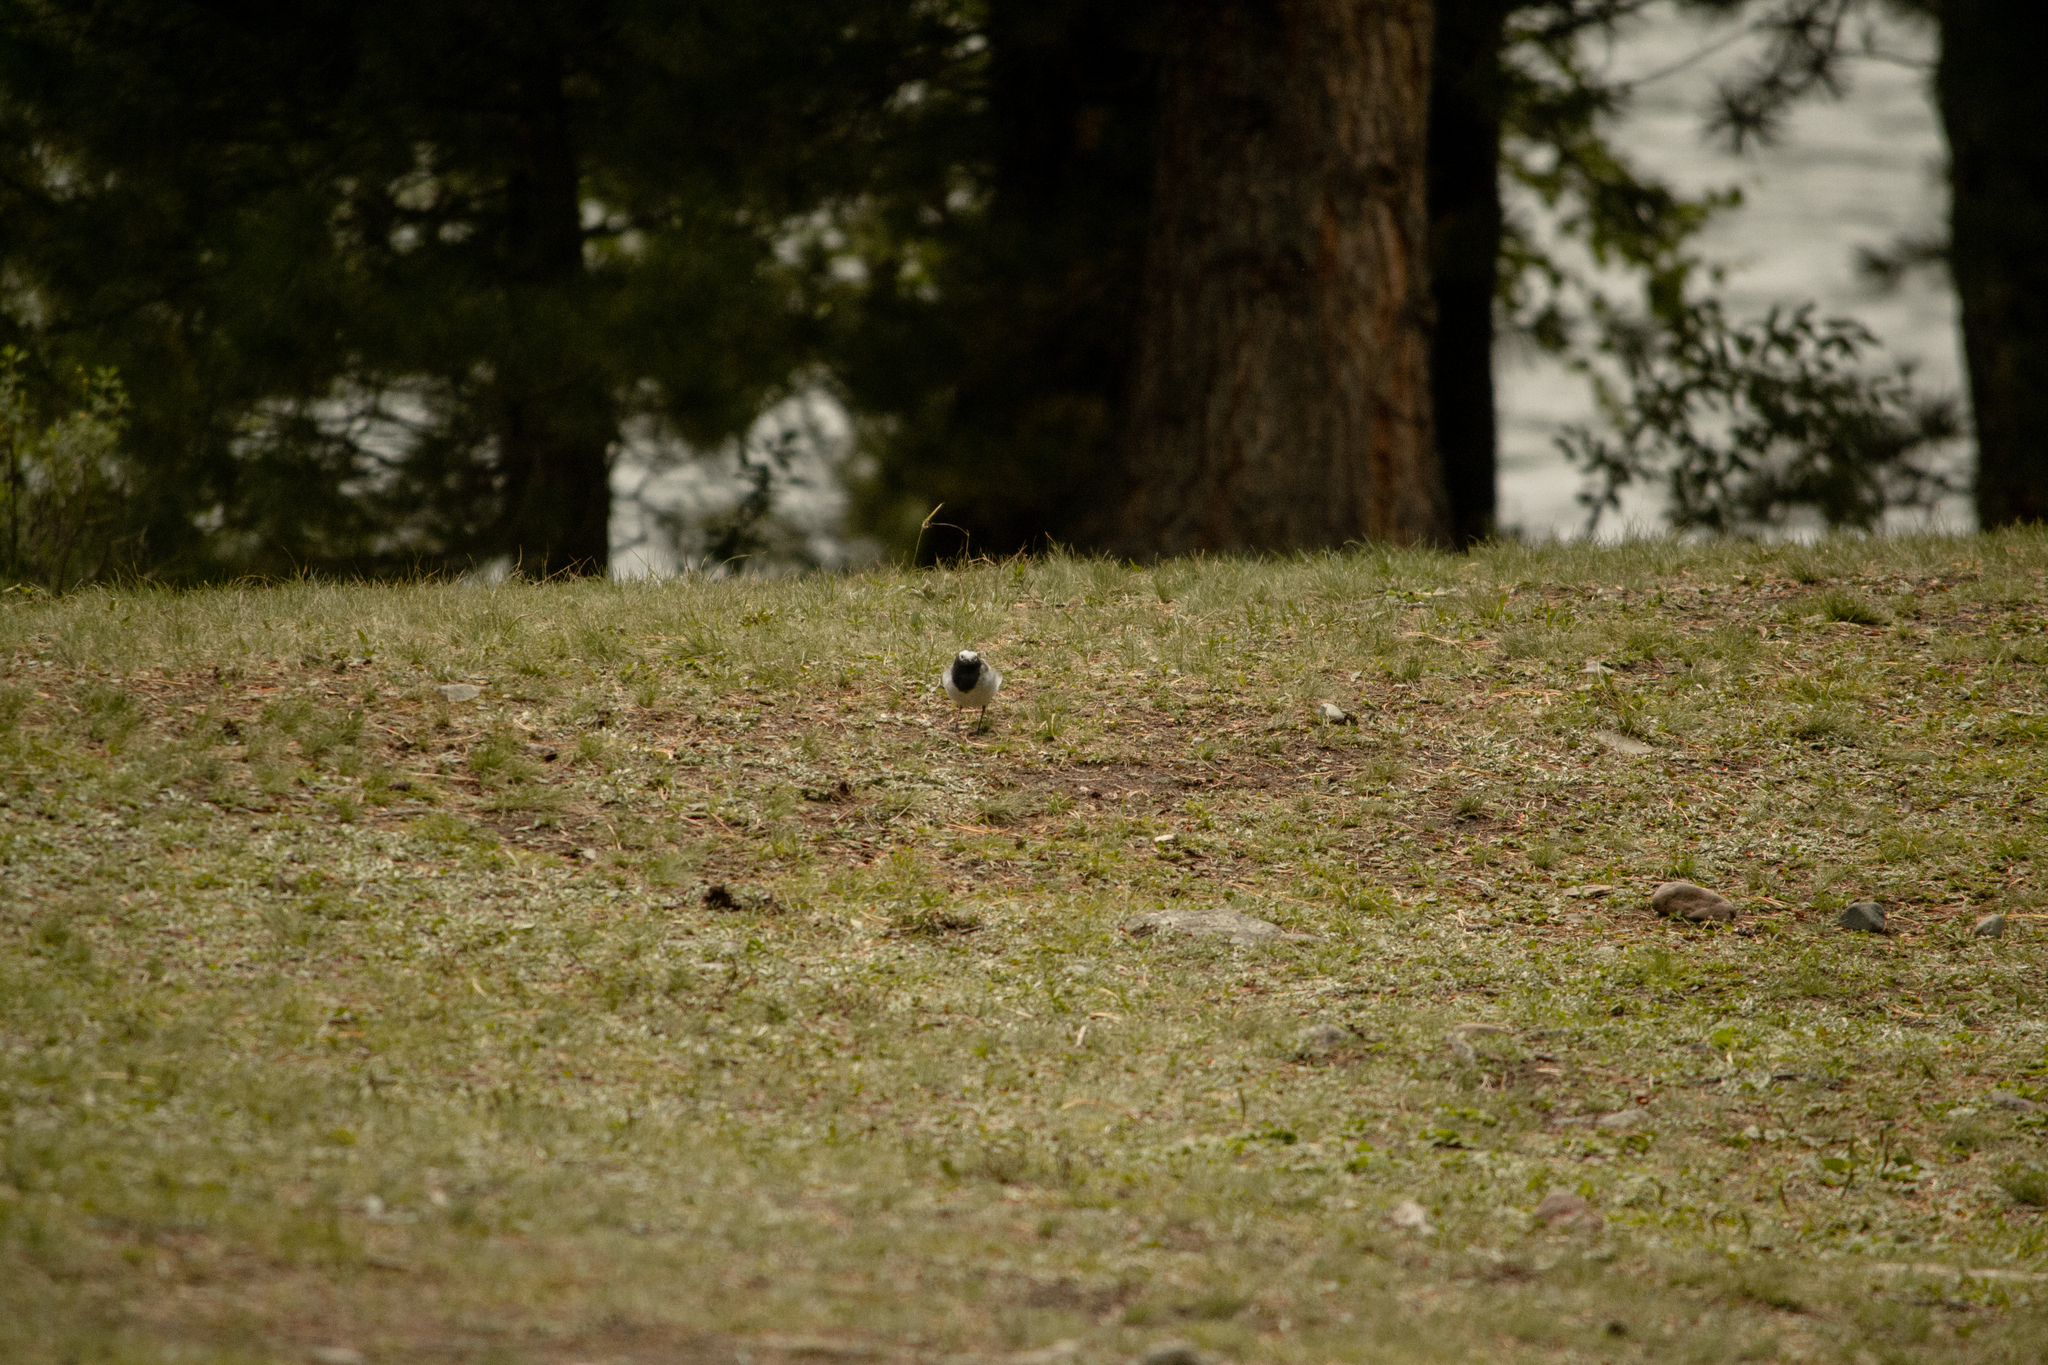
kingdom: Animalia
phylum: Chordata
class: Aves
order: Passeriformes
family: Motacillidae
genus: Motacilla
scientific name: Motacilla alba
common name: White wagtail
